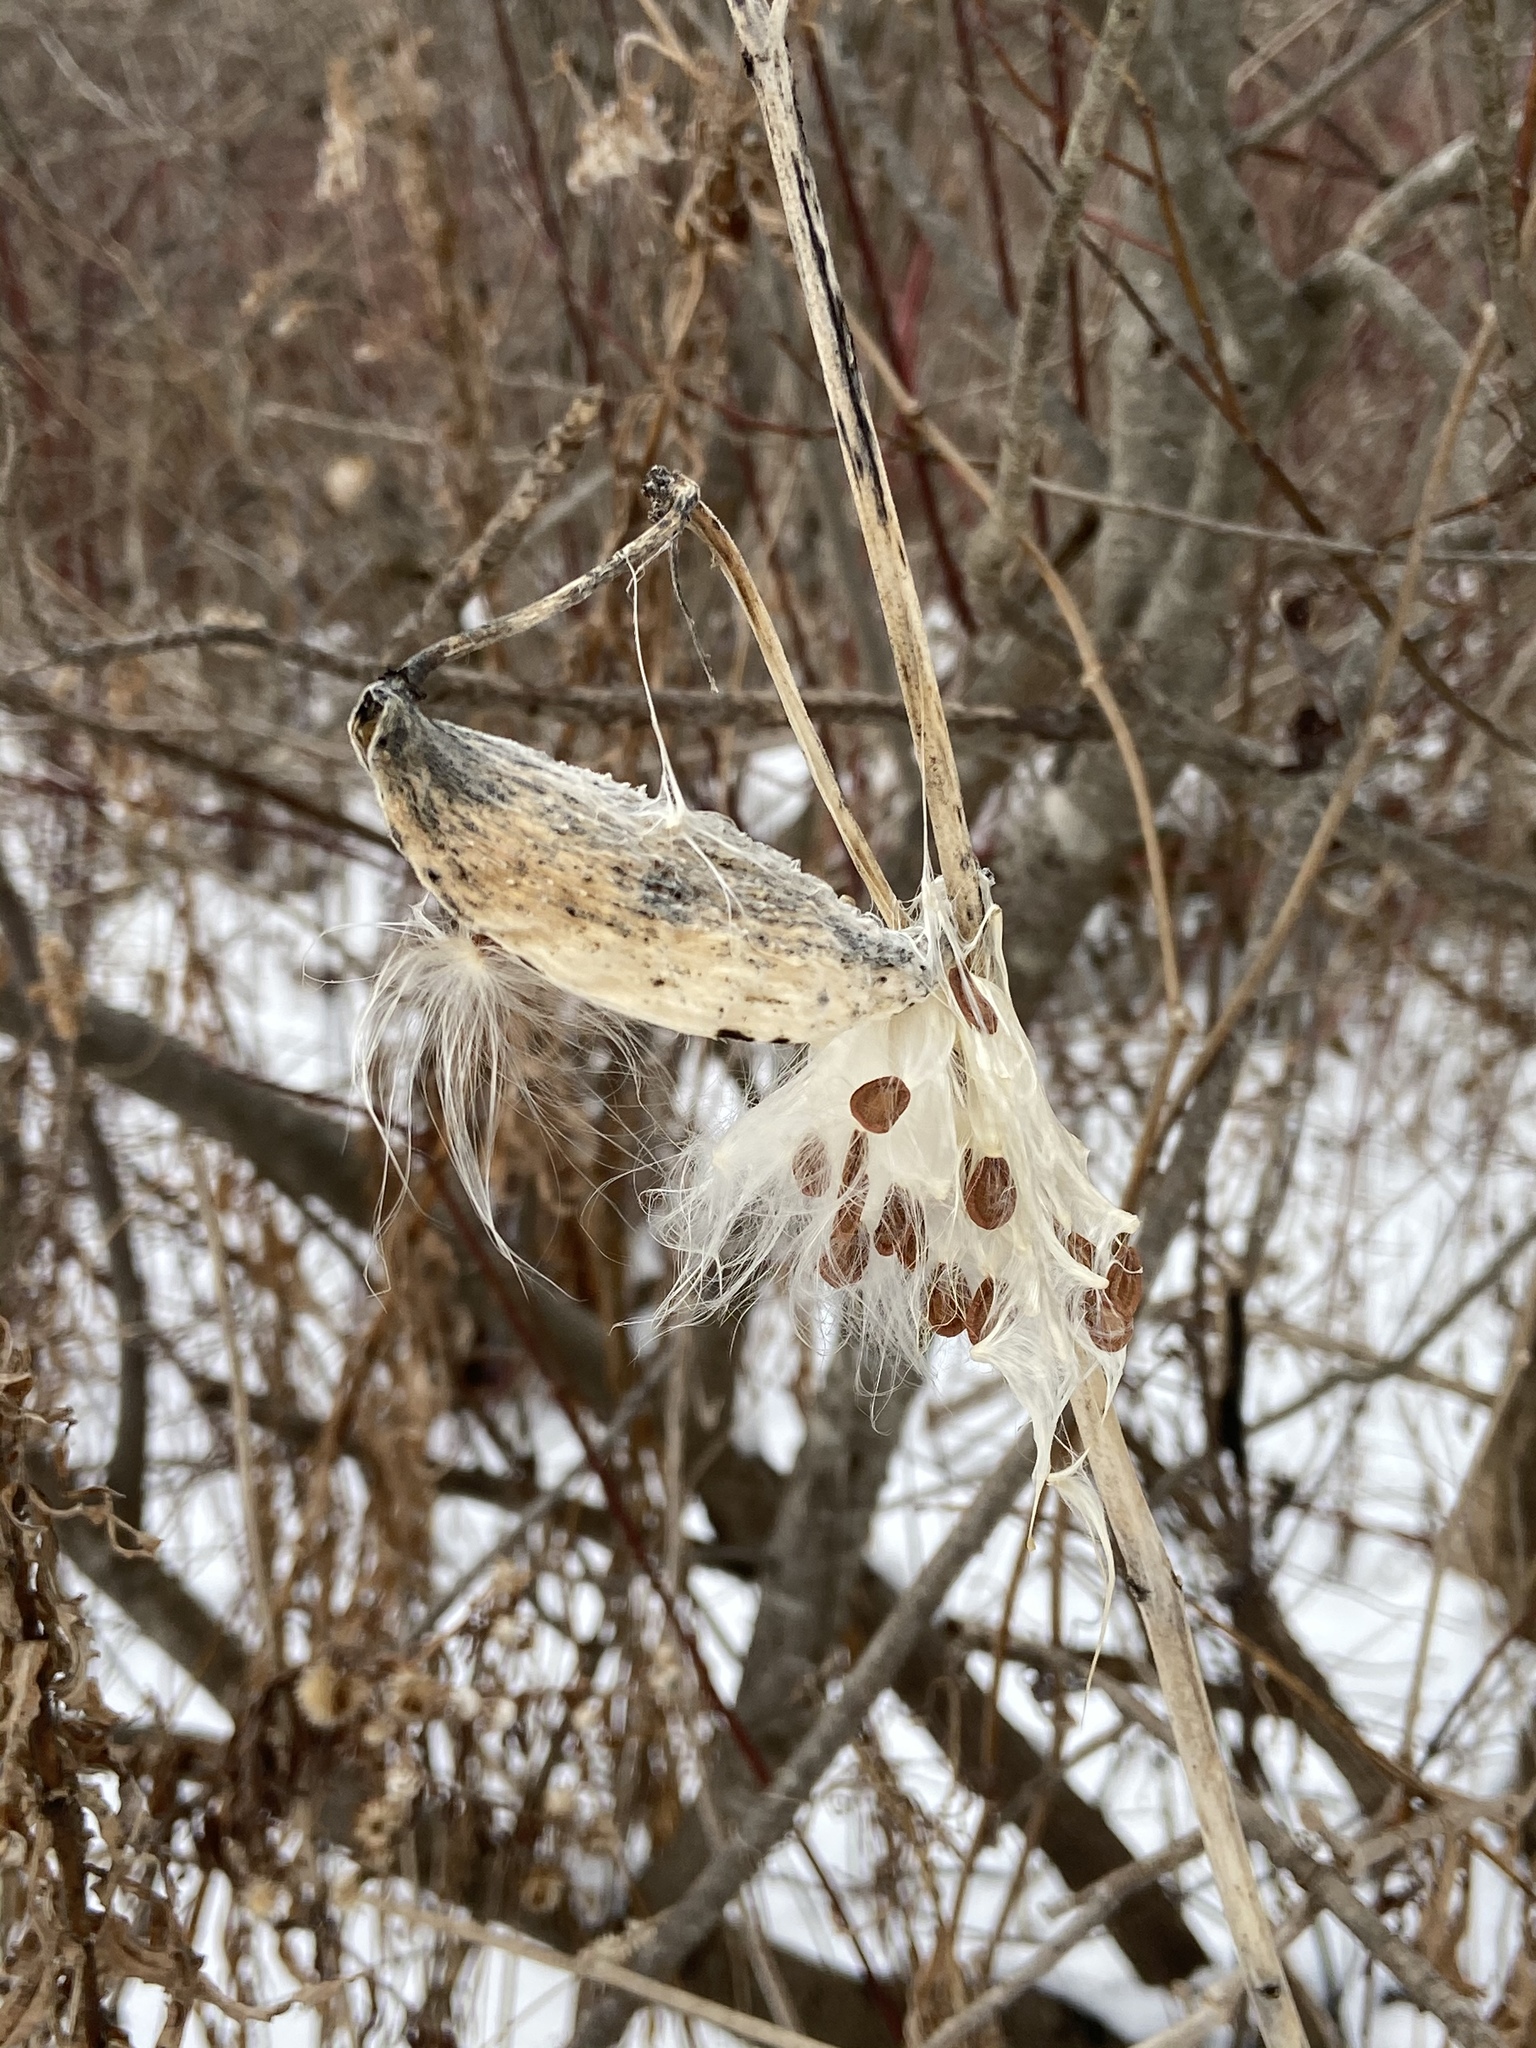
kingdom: Plantae
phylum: Tracheophyta
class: Magnoliopsida
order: Gentianales
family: Apocynaceae
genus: Asclepias
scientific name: Asclepias syriaca
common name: Common milkweed
